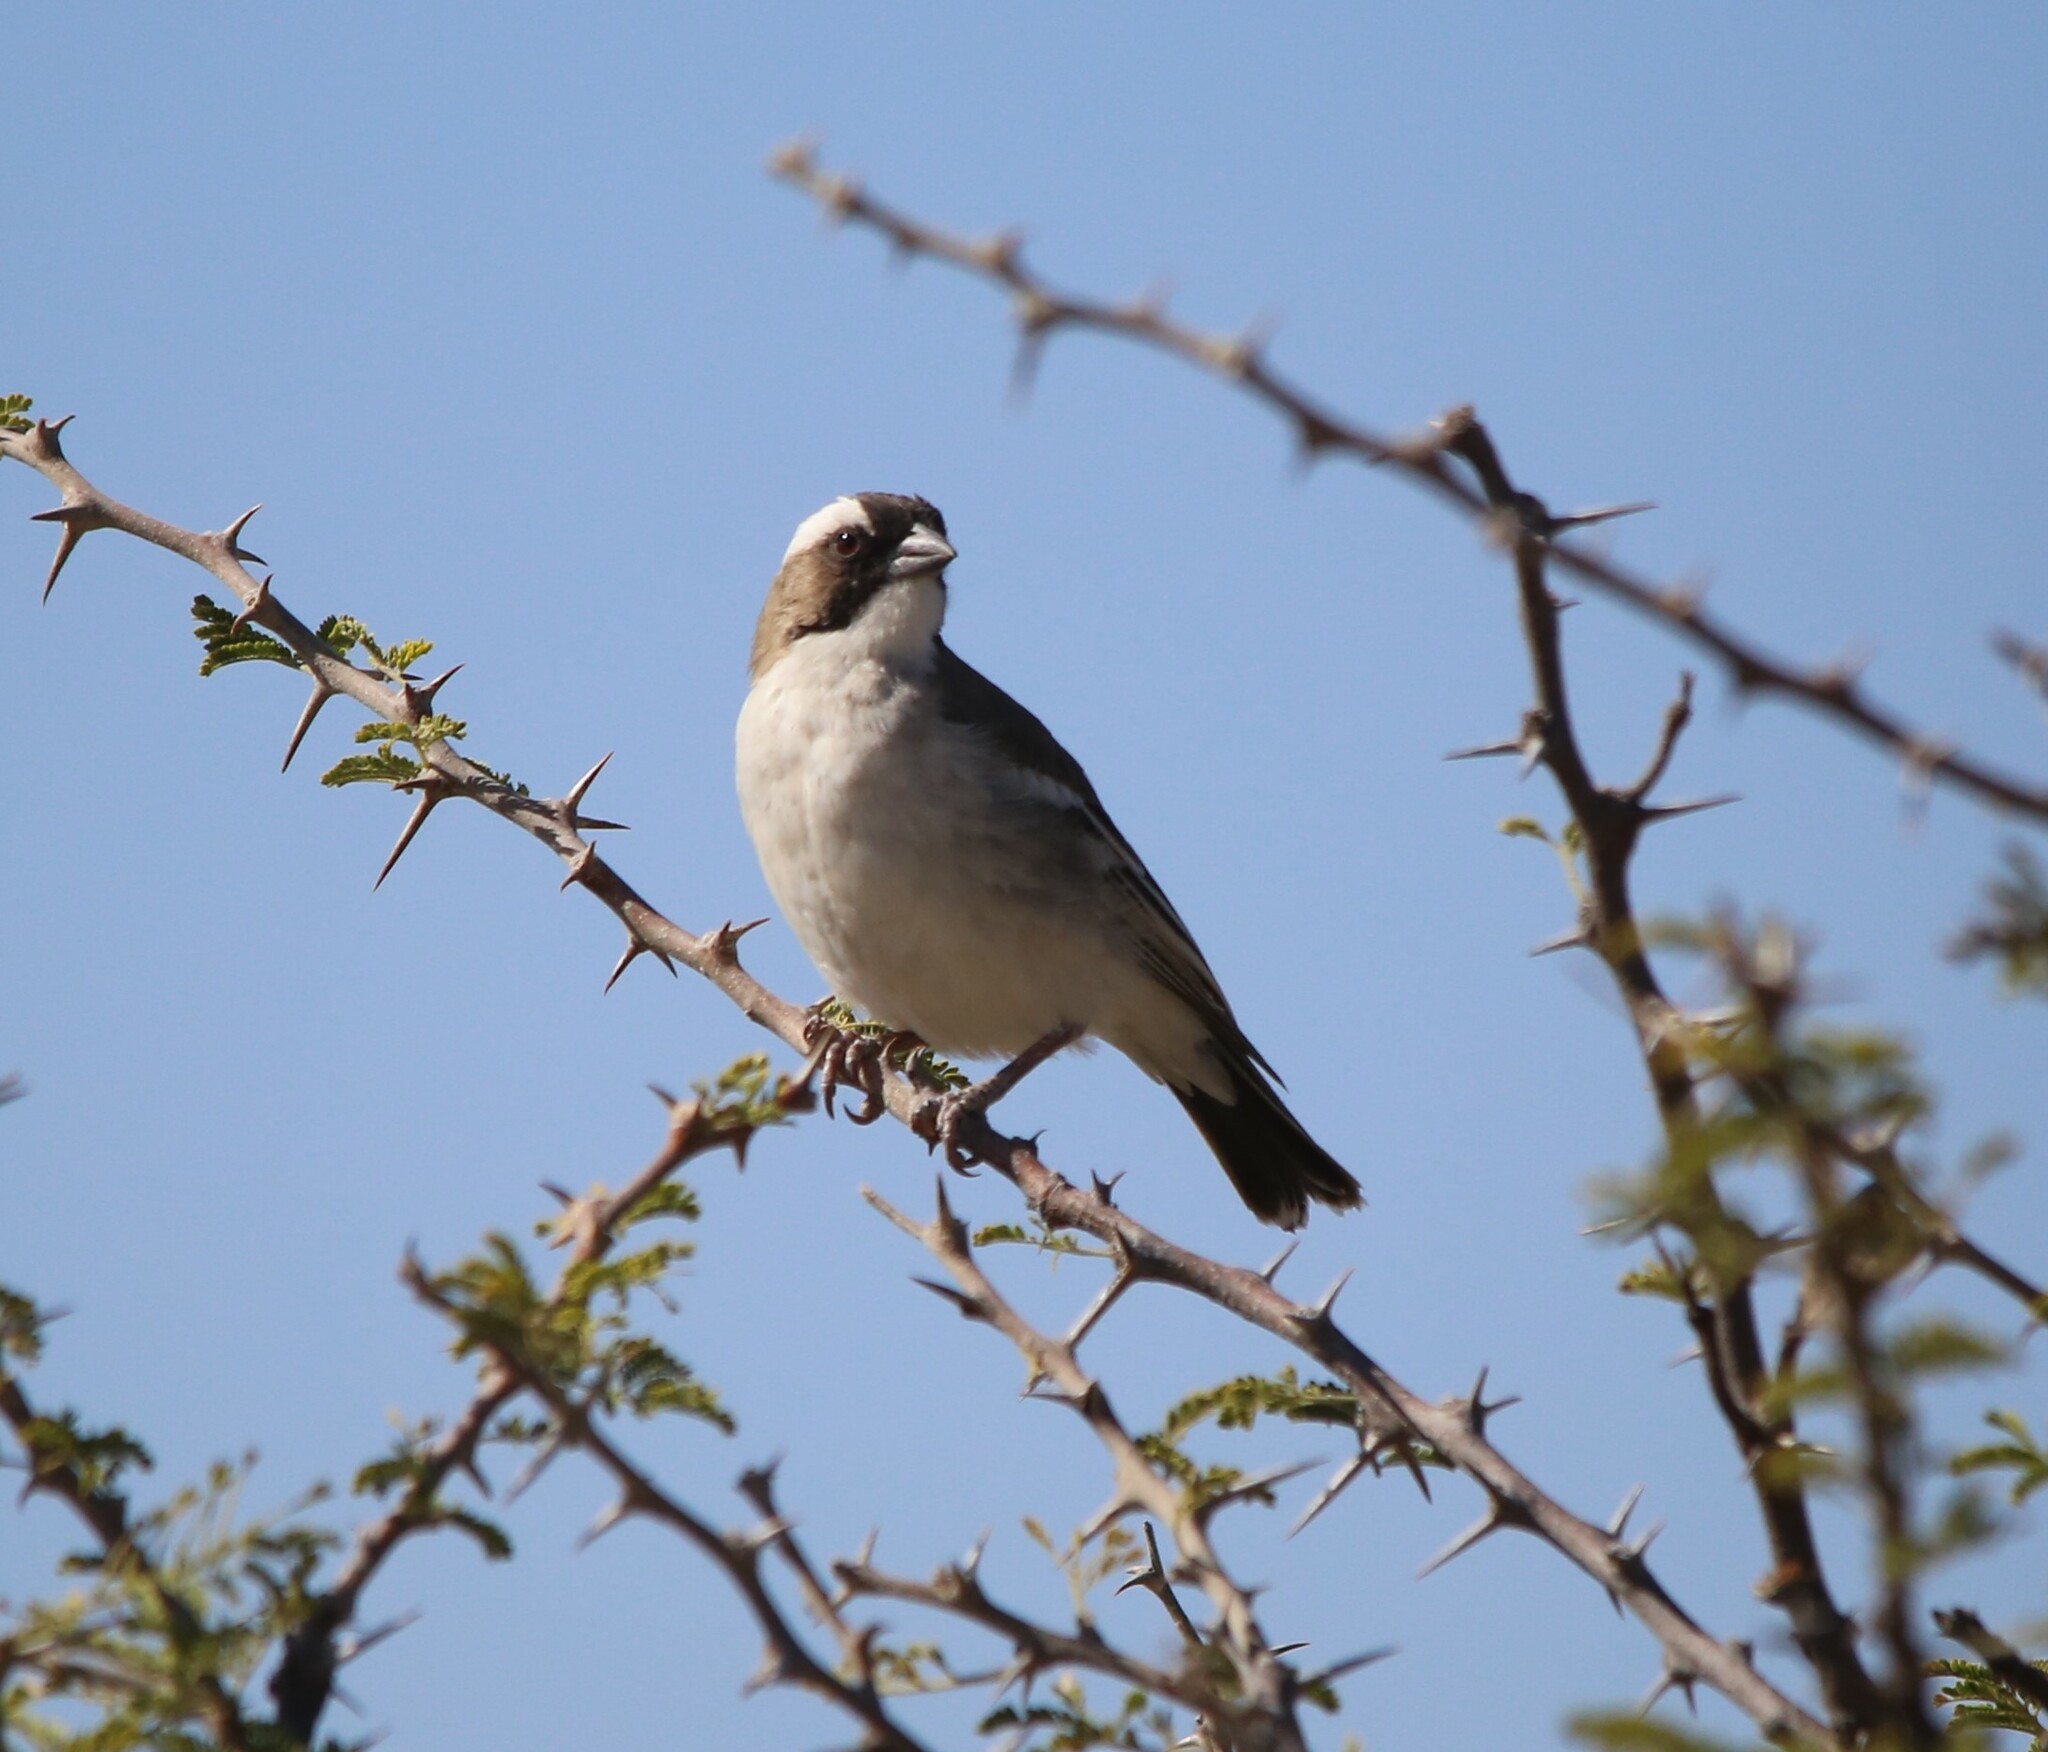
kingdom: Animalia
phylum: Chordata
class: Aves
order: Passeriformes
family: Passeridae
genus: Plocepasser
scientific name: Plocepasser mahali
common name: White-browed sparrow-weaver
